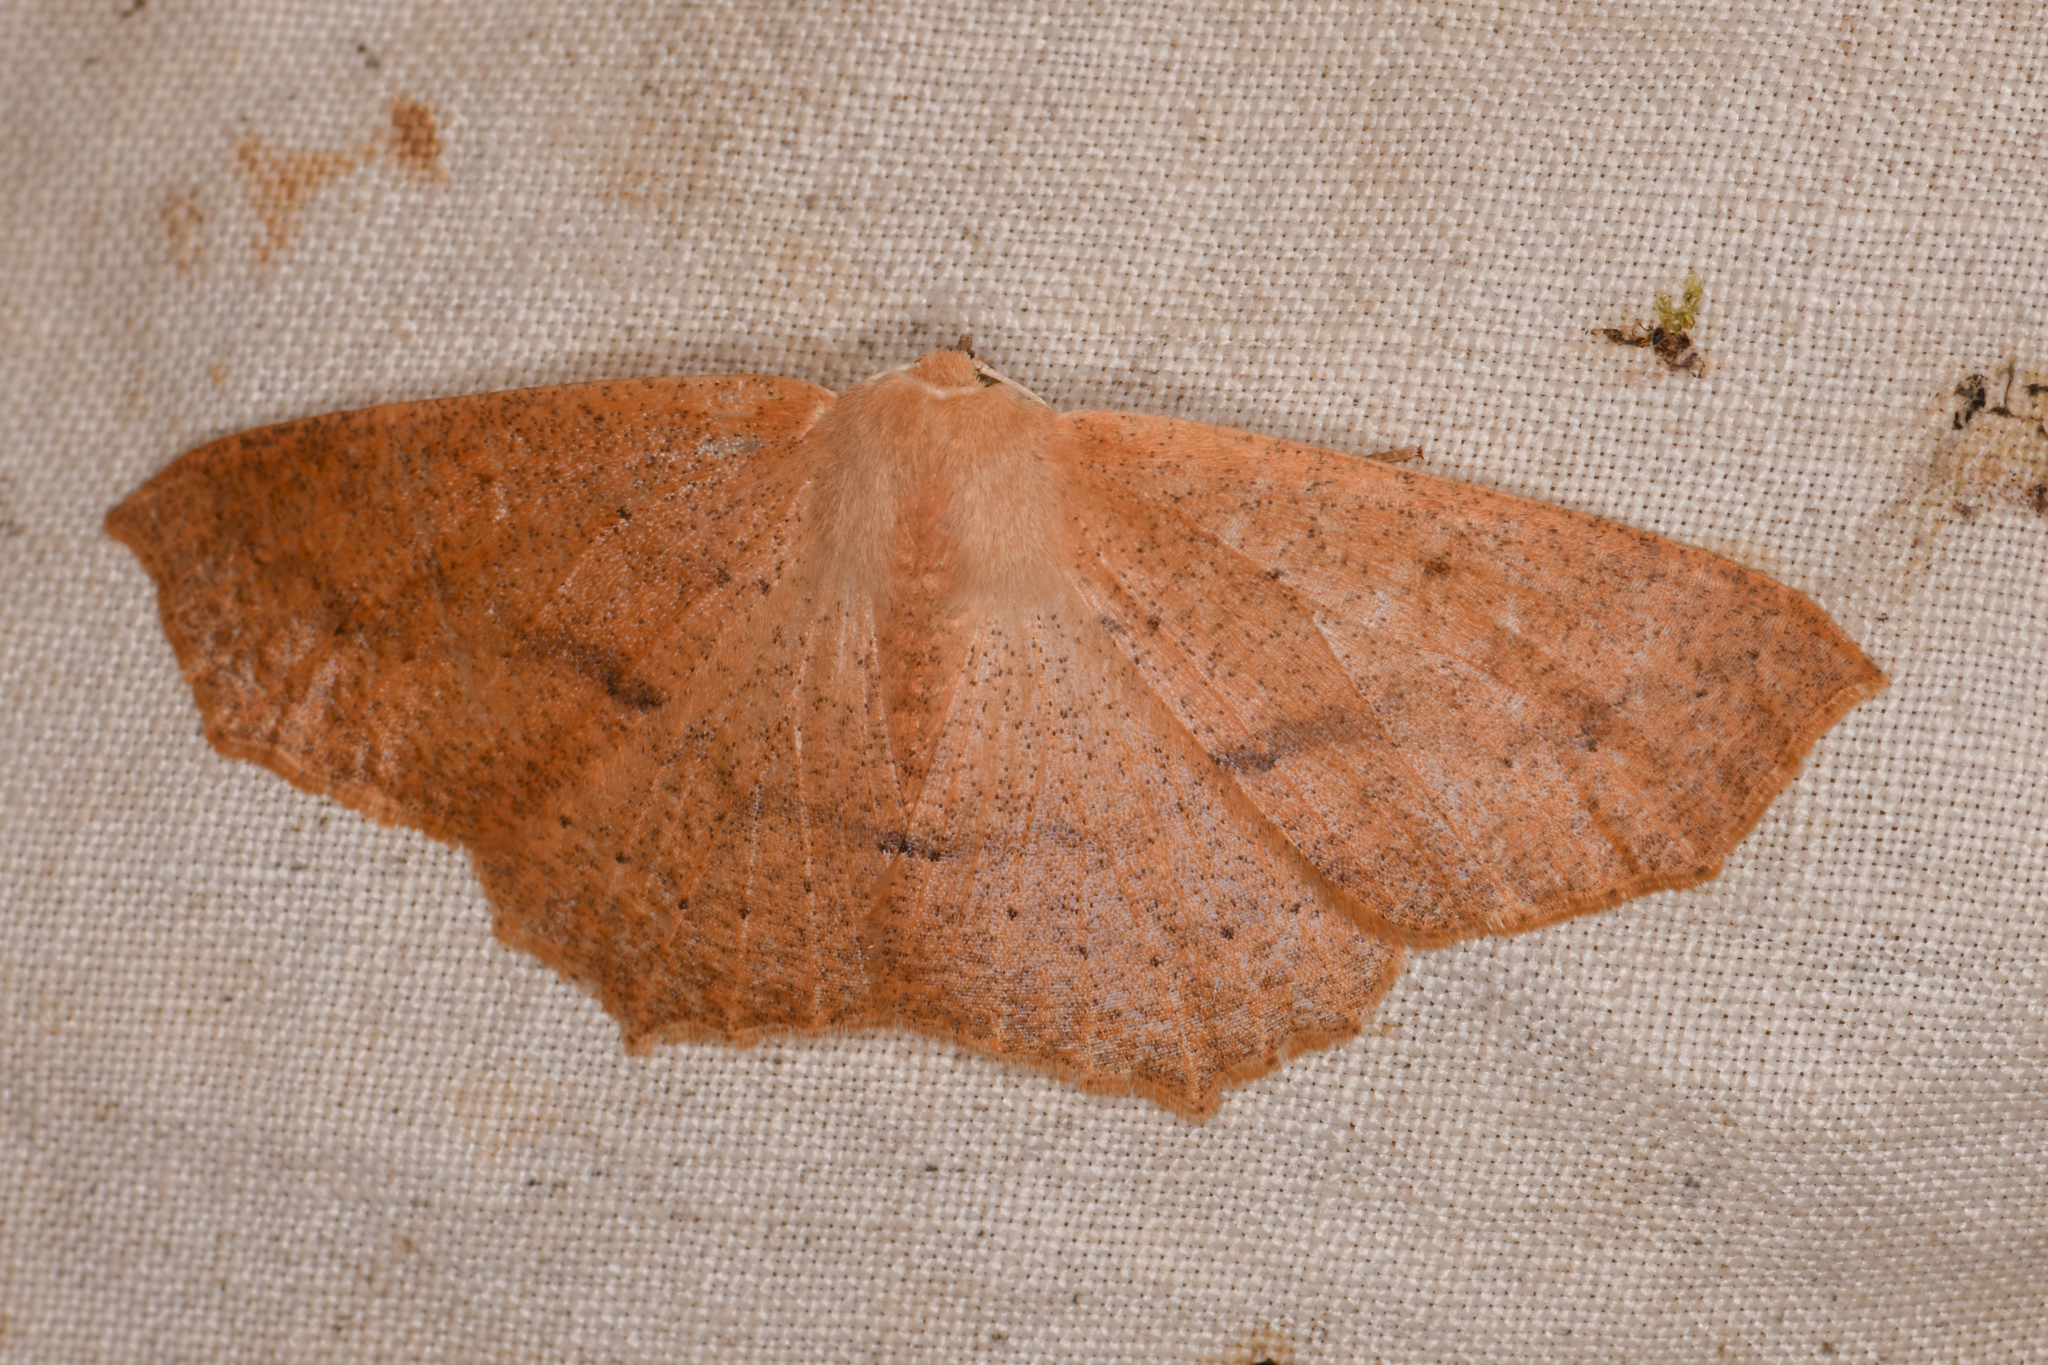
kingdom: Animalia
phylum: Arthropoda
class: Insecta
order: Lepidoptera
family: Geometridae
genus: Sabulodes
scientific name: Sabulodes aegrotata
